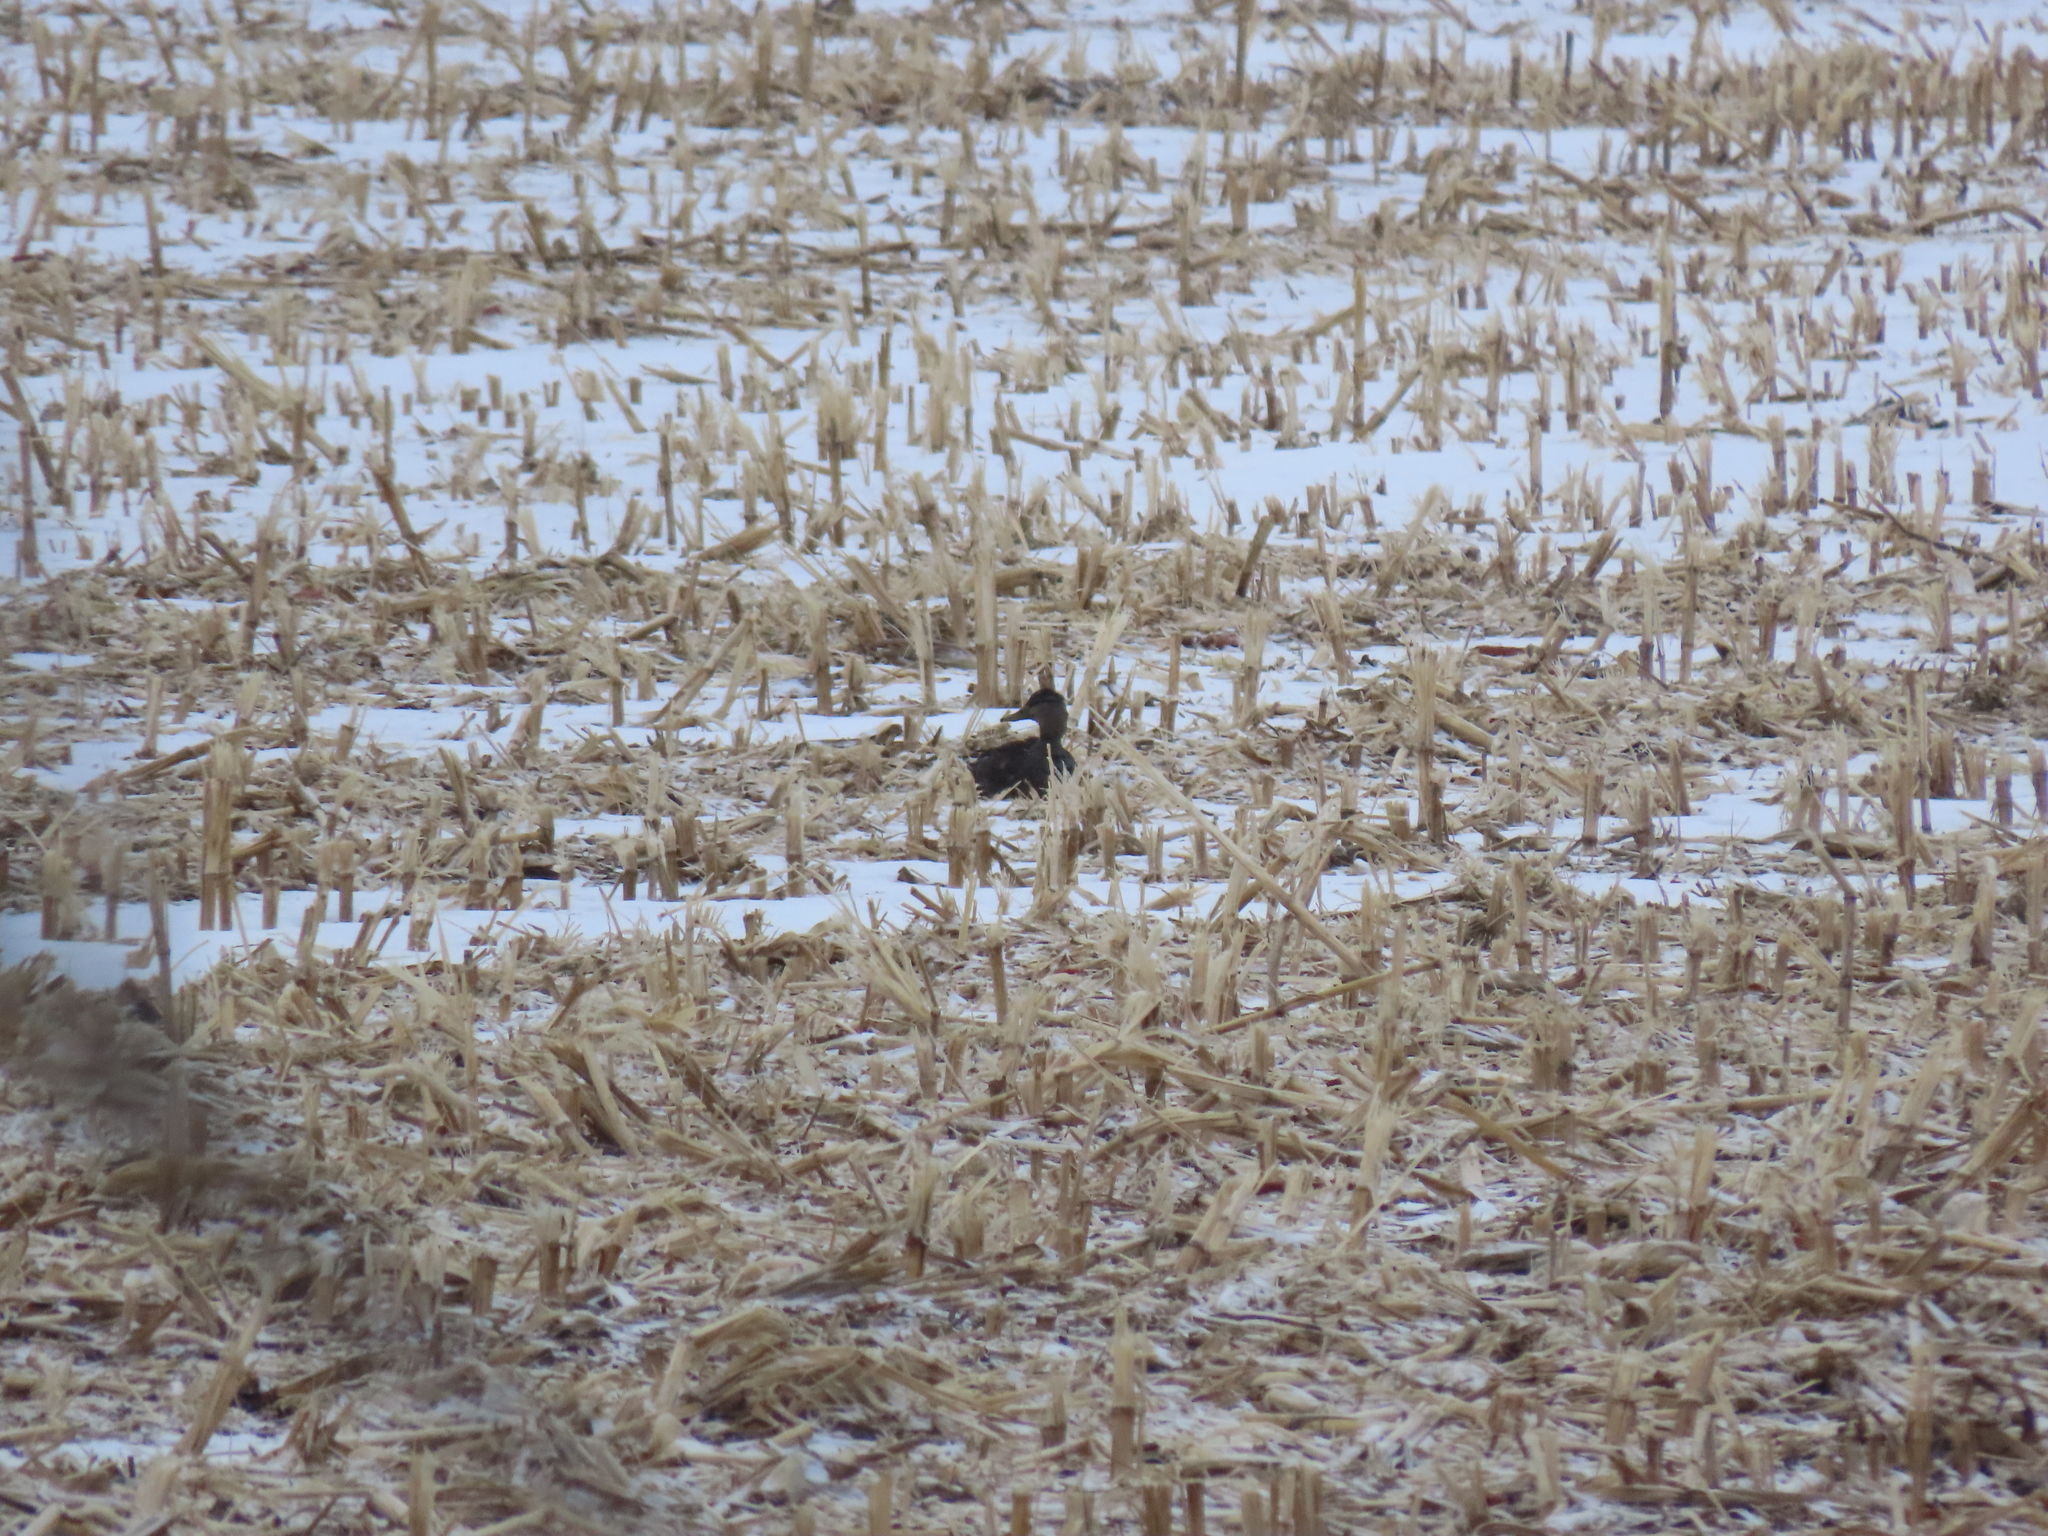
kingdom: Animalia
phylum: Chordata
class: Aves
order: Anseriformes
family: Anatidae
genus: Anas
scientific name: Anas rubripes
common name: American black duck
